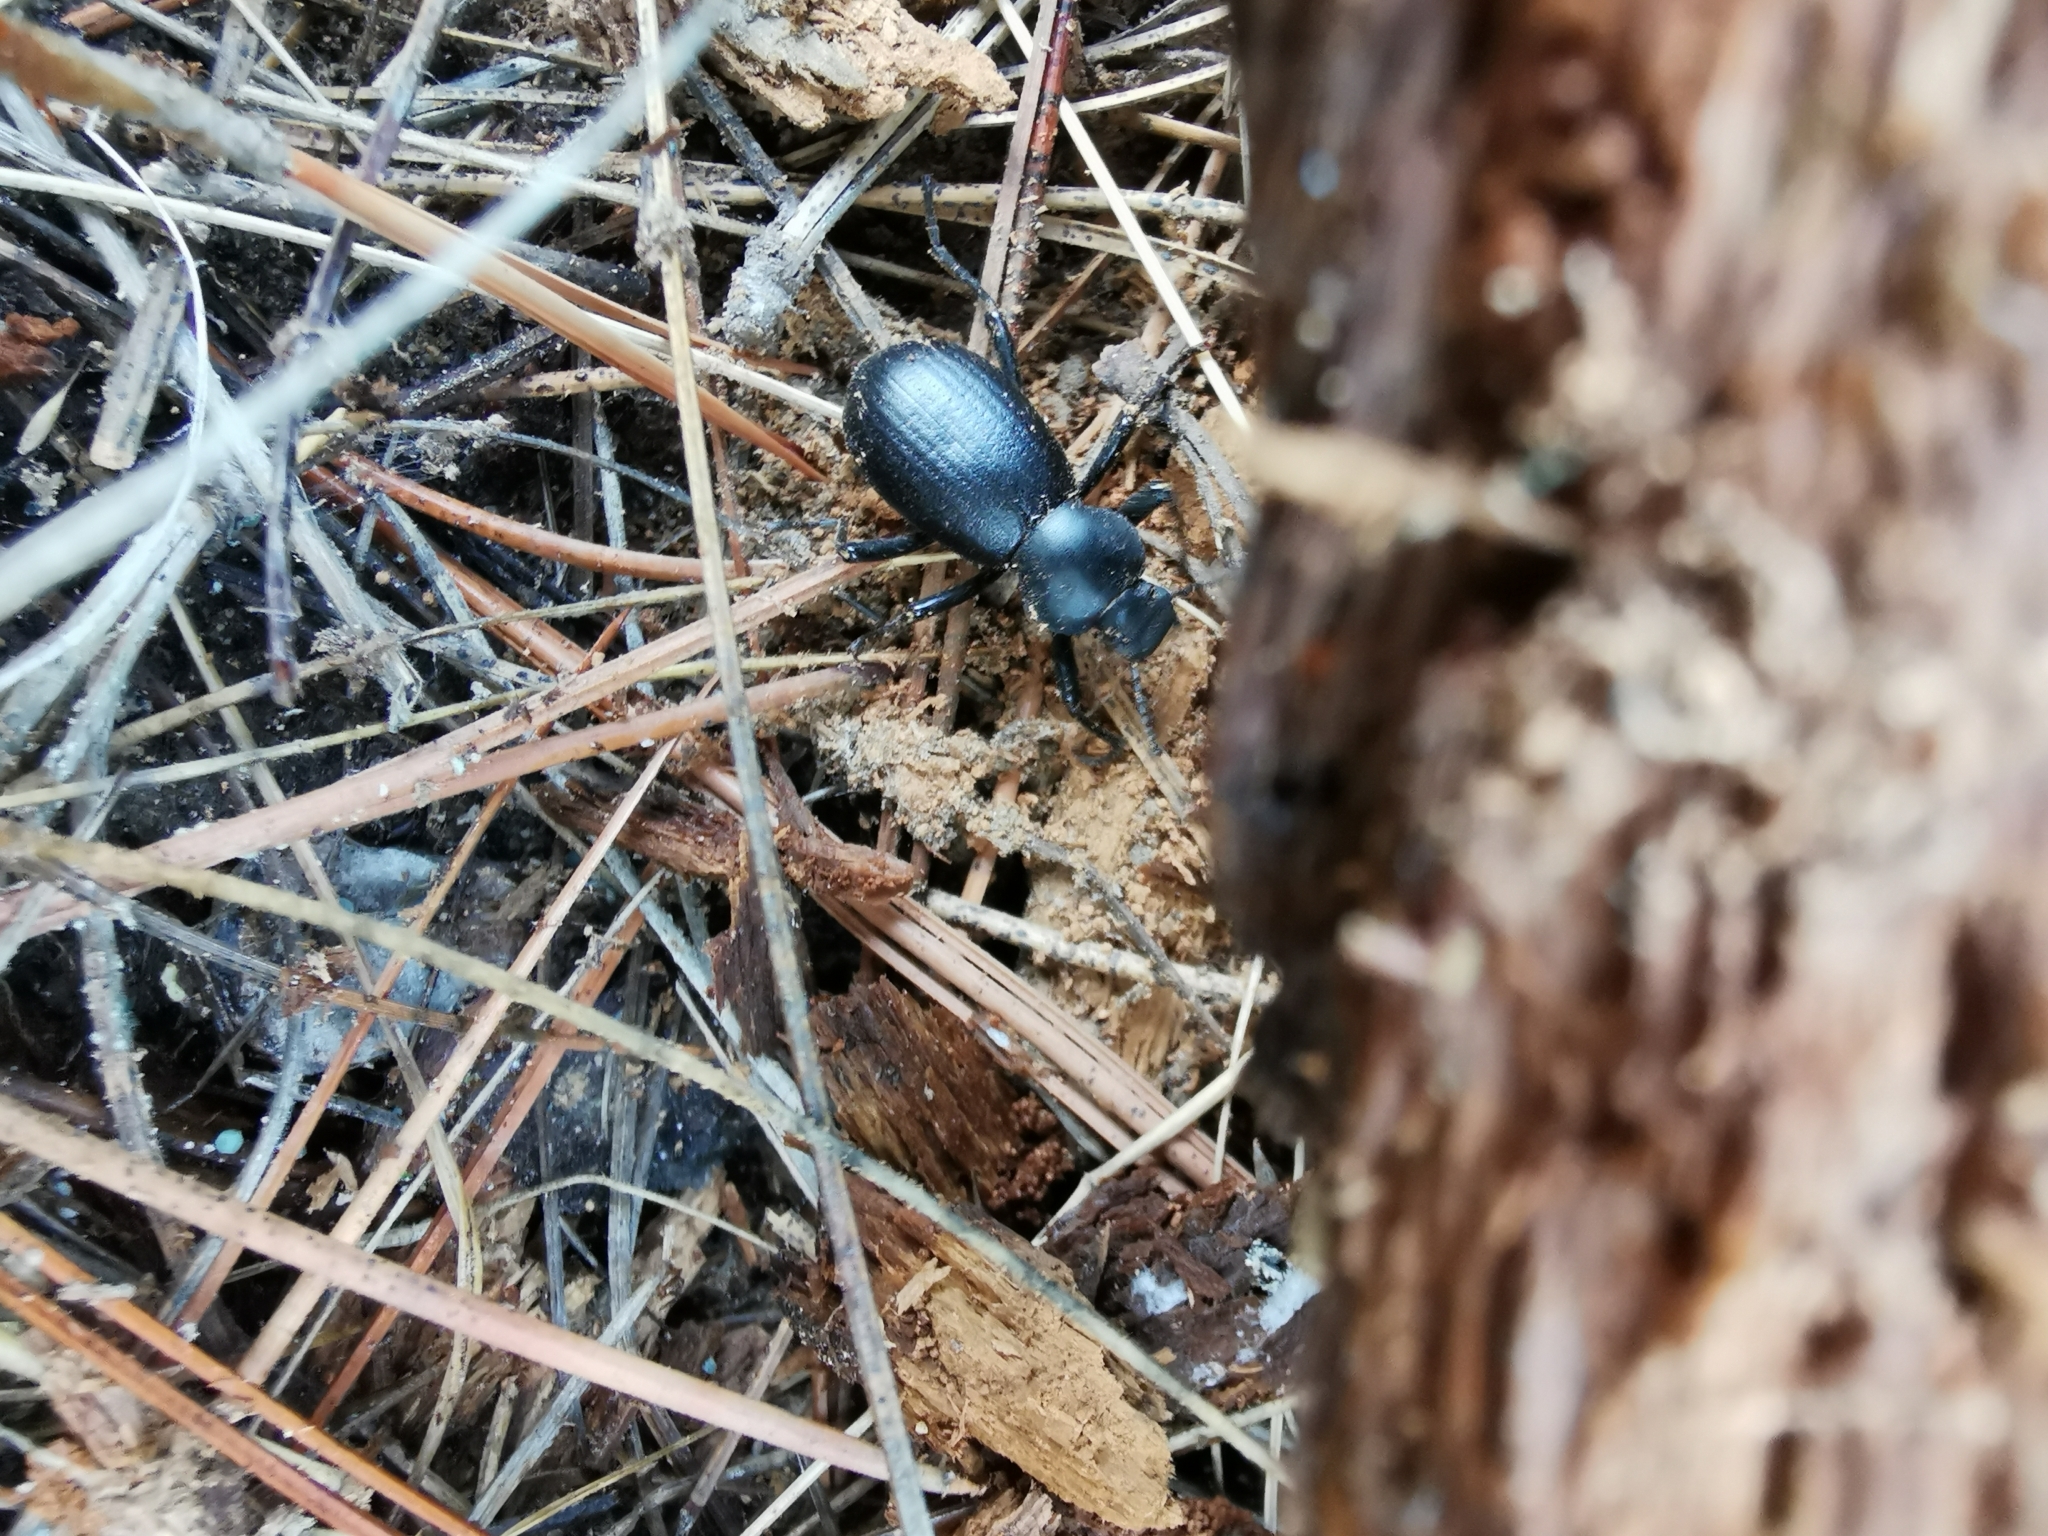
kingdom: Animalia
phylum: Arthropoda
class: Insecta
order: Coleoptera
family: Tenebrionidae
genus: Coelocnemis
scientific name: Coelocnemis dilaticollis
